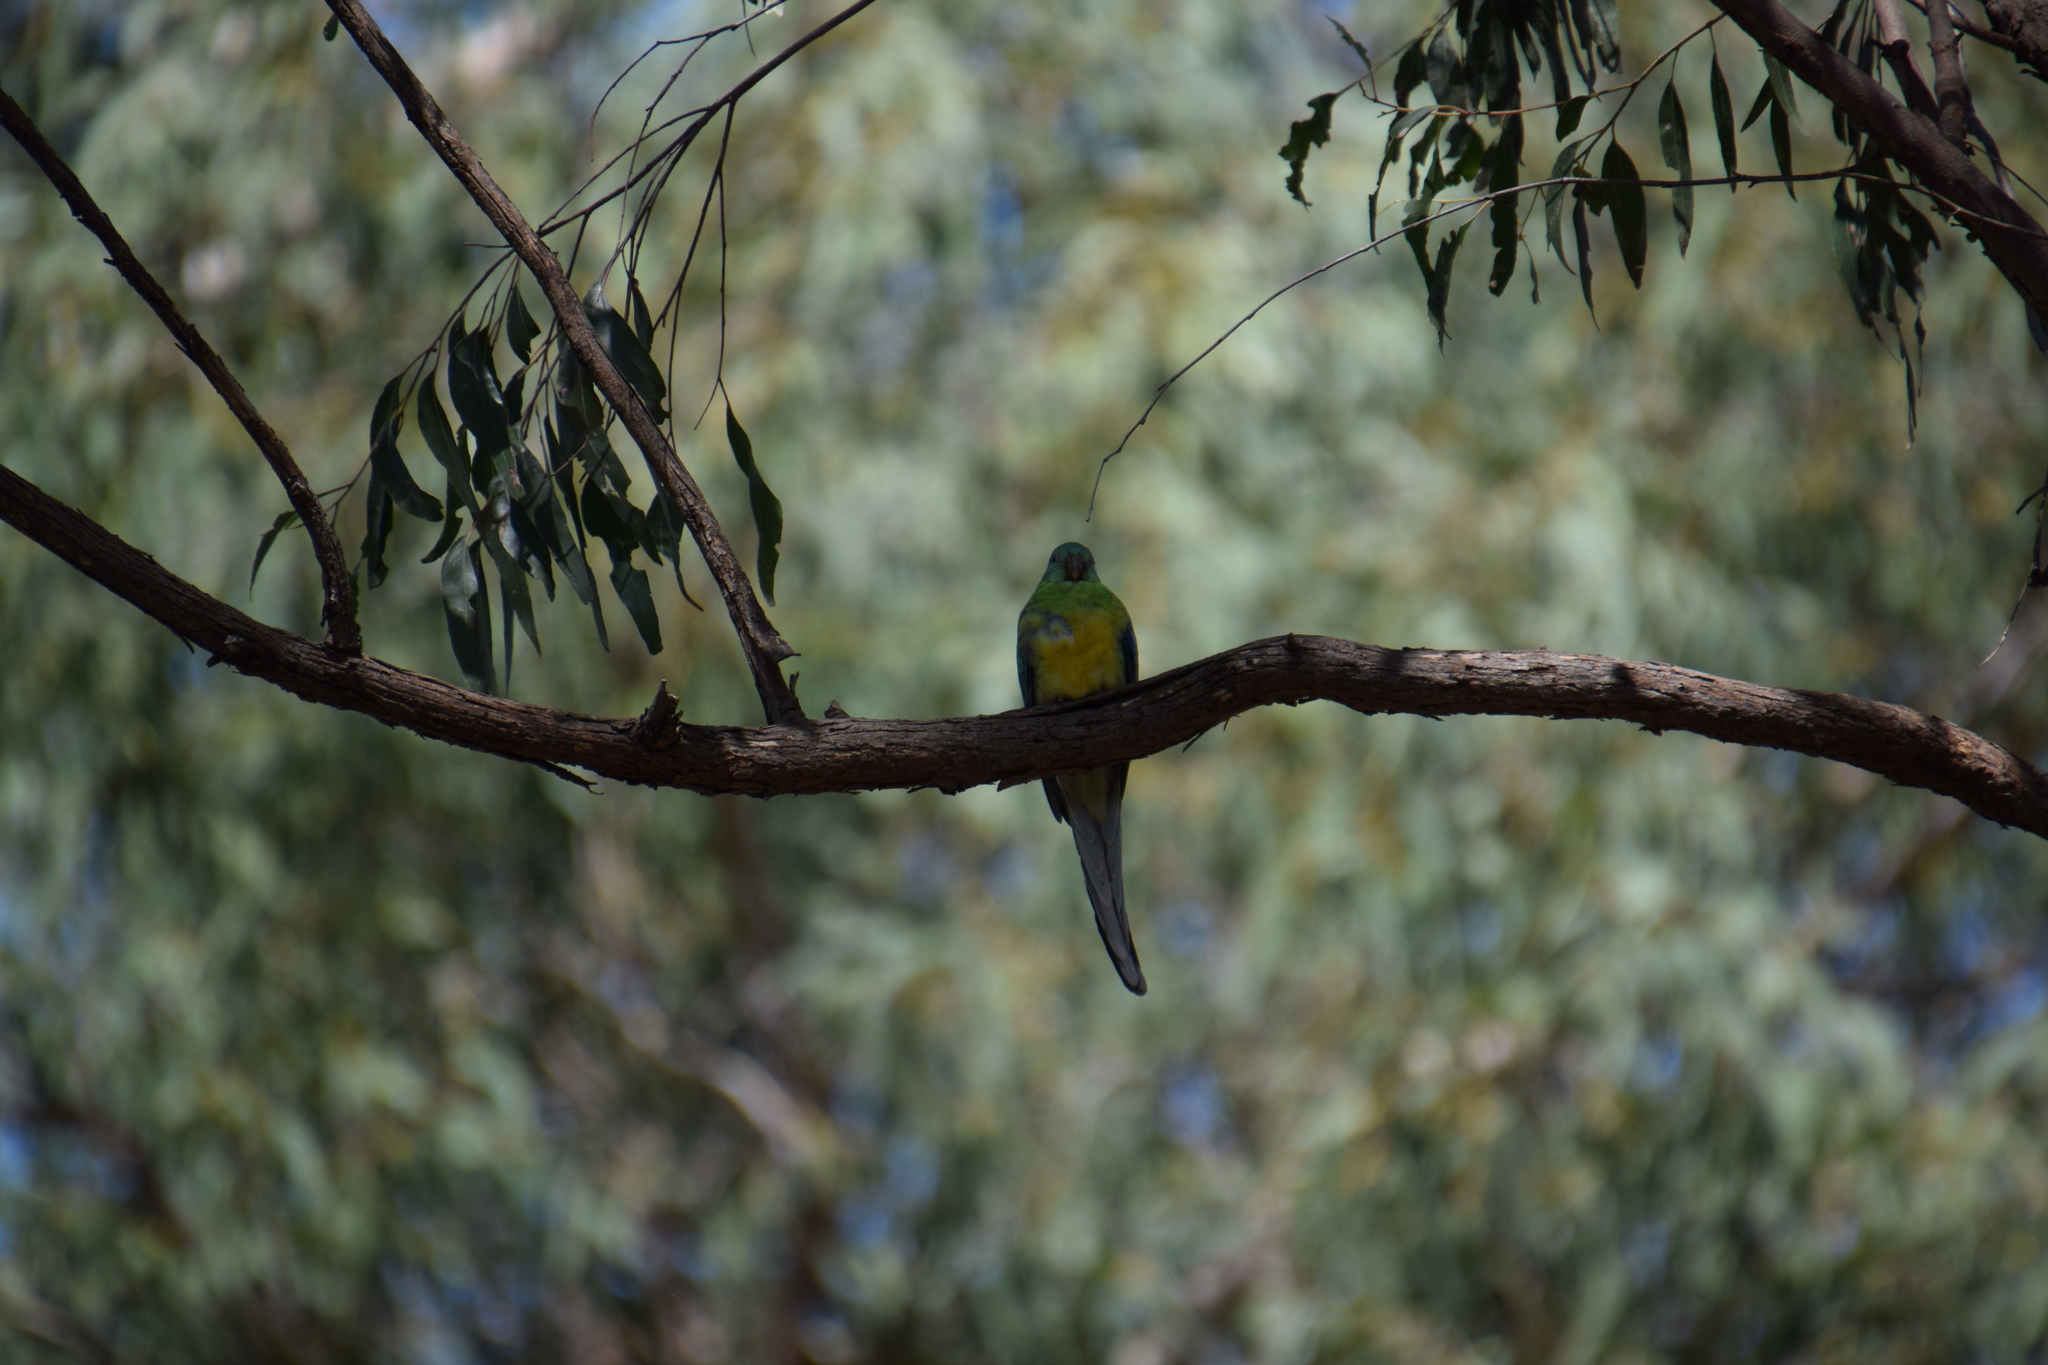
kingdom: Animalia
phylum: Chordata
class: Aves
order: Psittaciformes
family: Psittacidae
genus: Psephotus
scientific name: Psephotus haematonotus
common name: Red-rumped parrot
